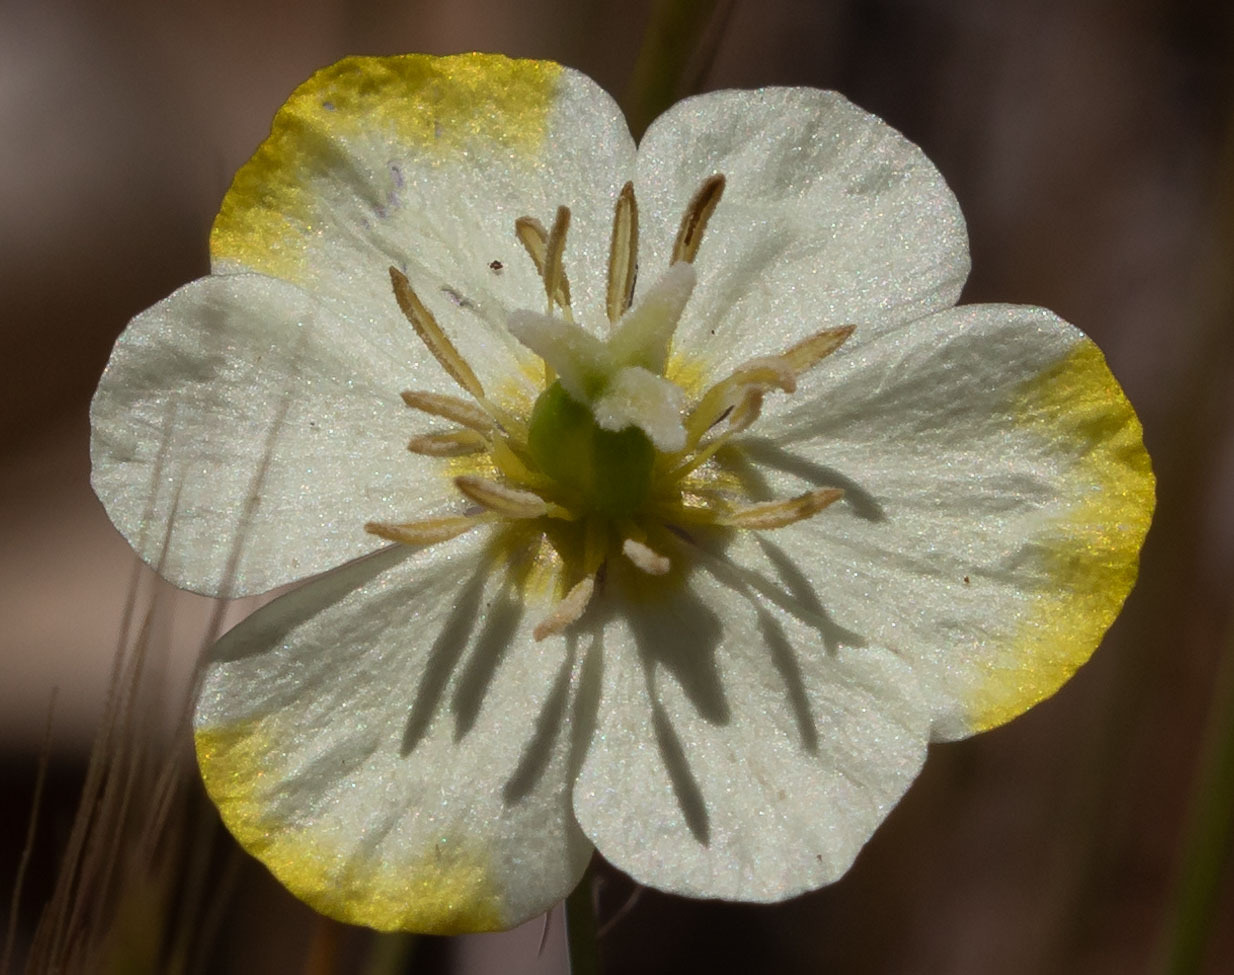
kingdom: Plantae
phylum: Tracheophyta
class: Magnoliopsida
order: Ranunculales
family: Papaveraceae
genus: Platystigma
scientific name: Platystigma lineare
